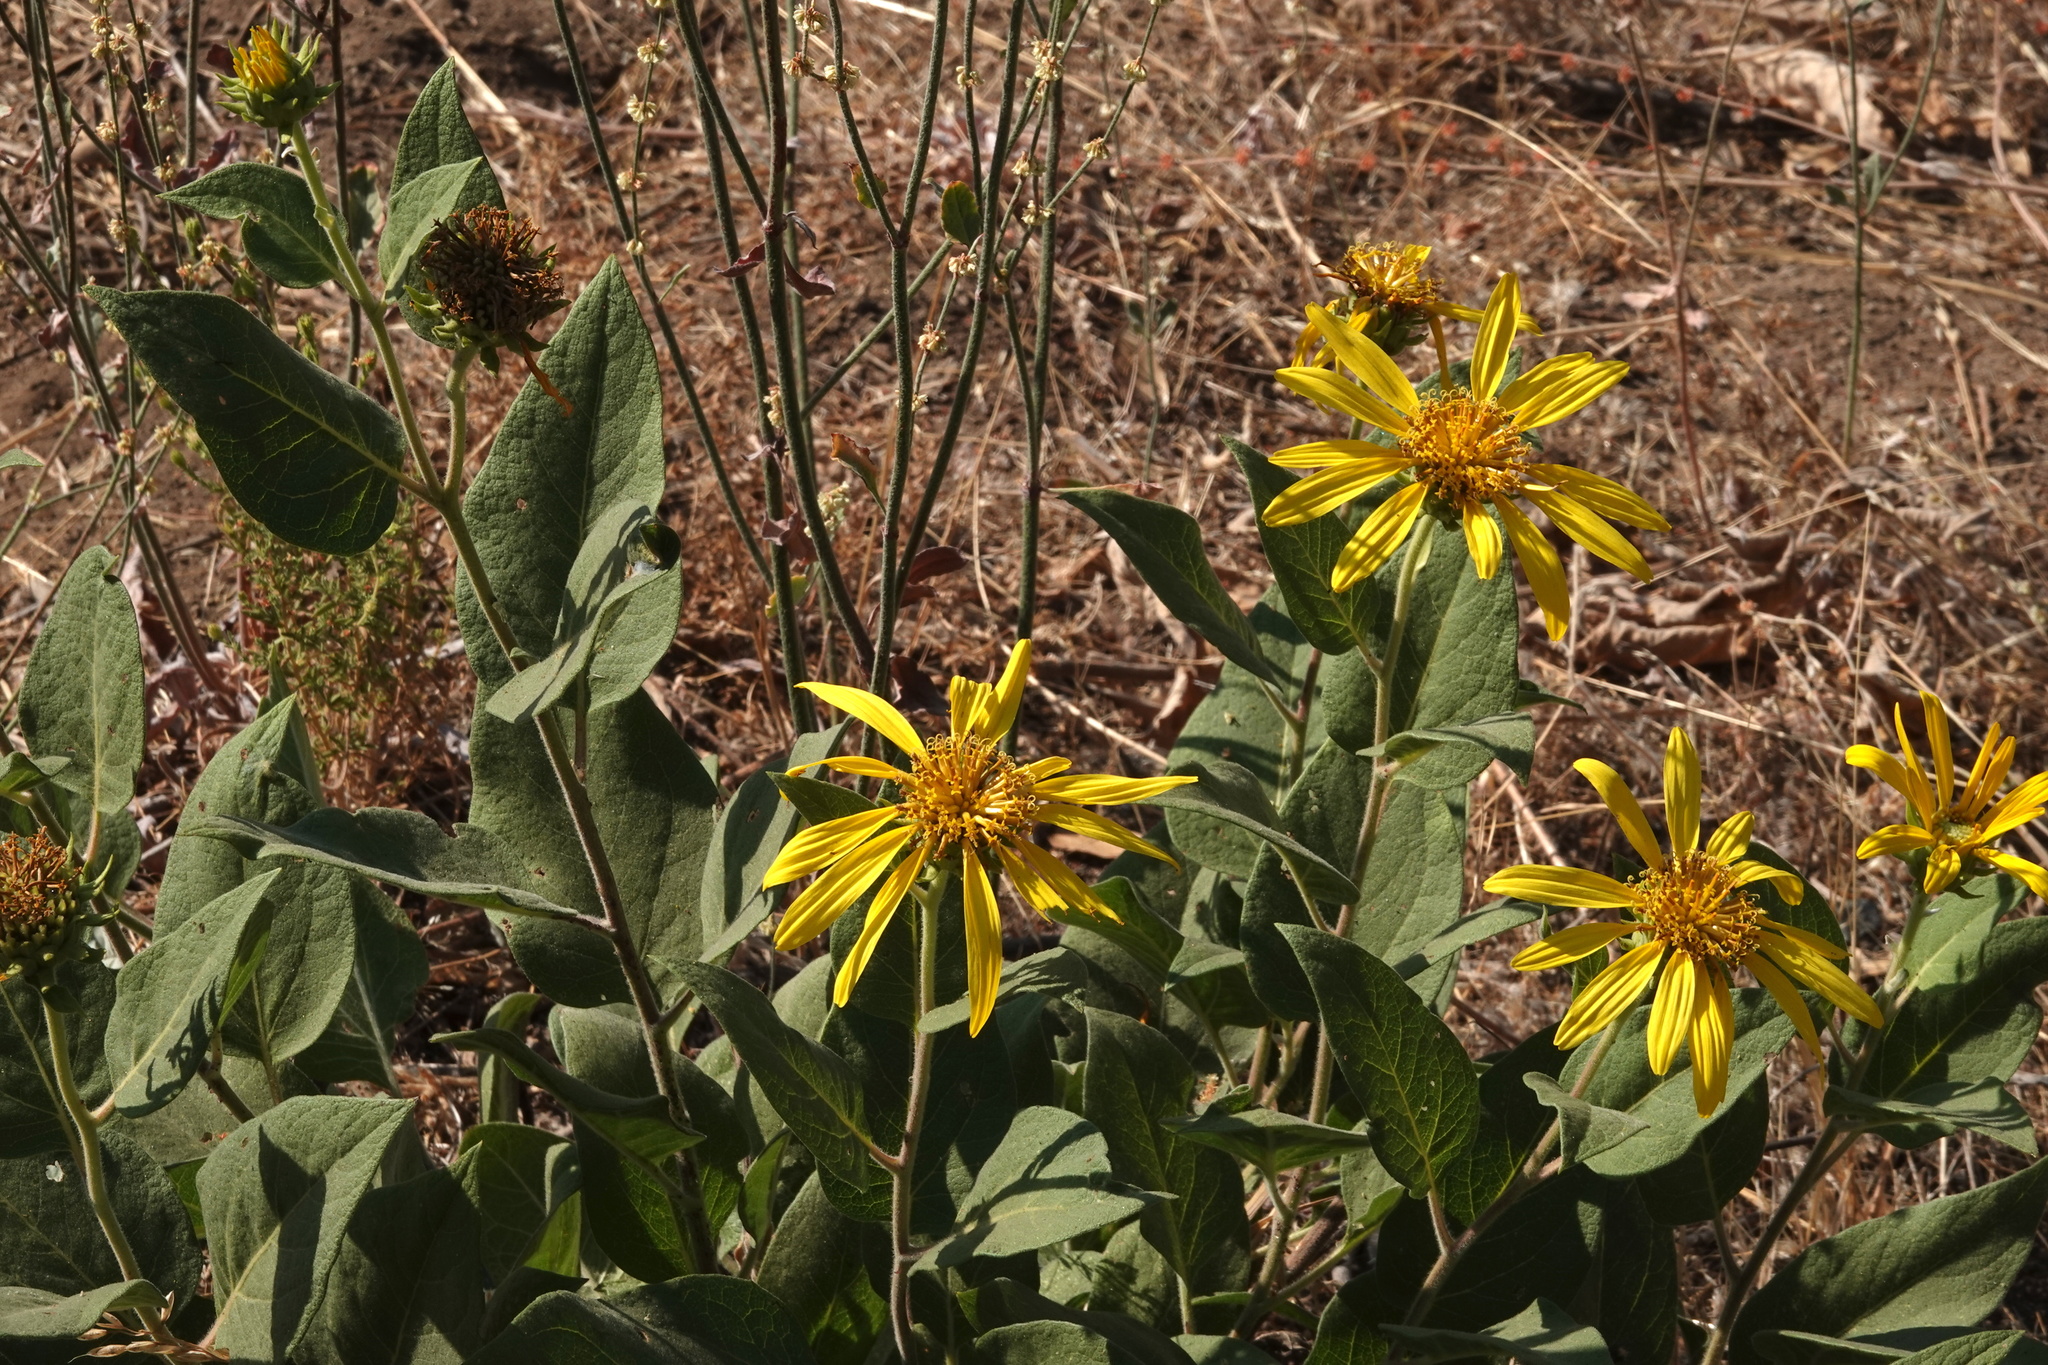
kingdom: Plantae
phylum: Tracheophyta
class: Magnoliopsida
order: Asterales
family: Asteraceae
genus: Agnorhiza
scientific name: Agnorhiza elata
